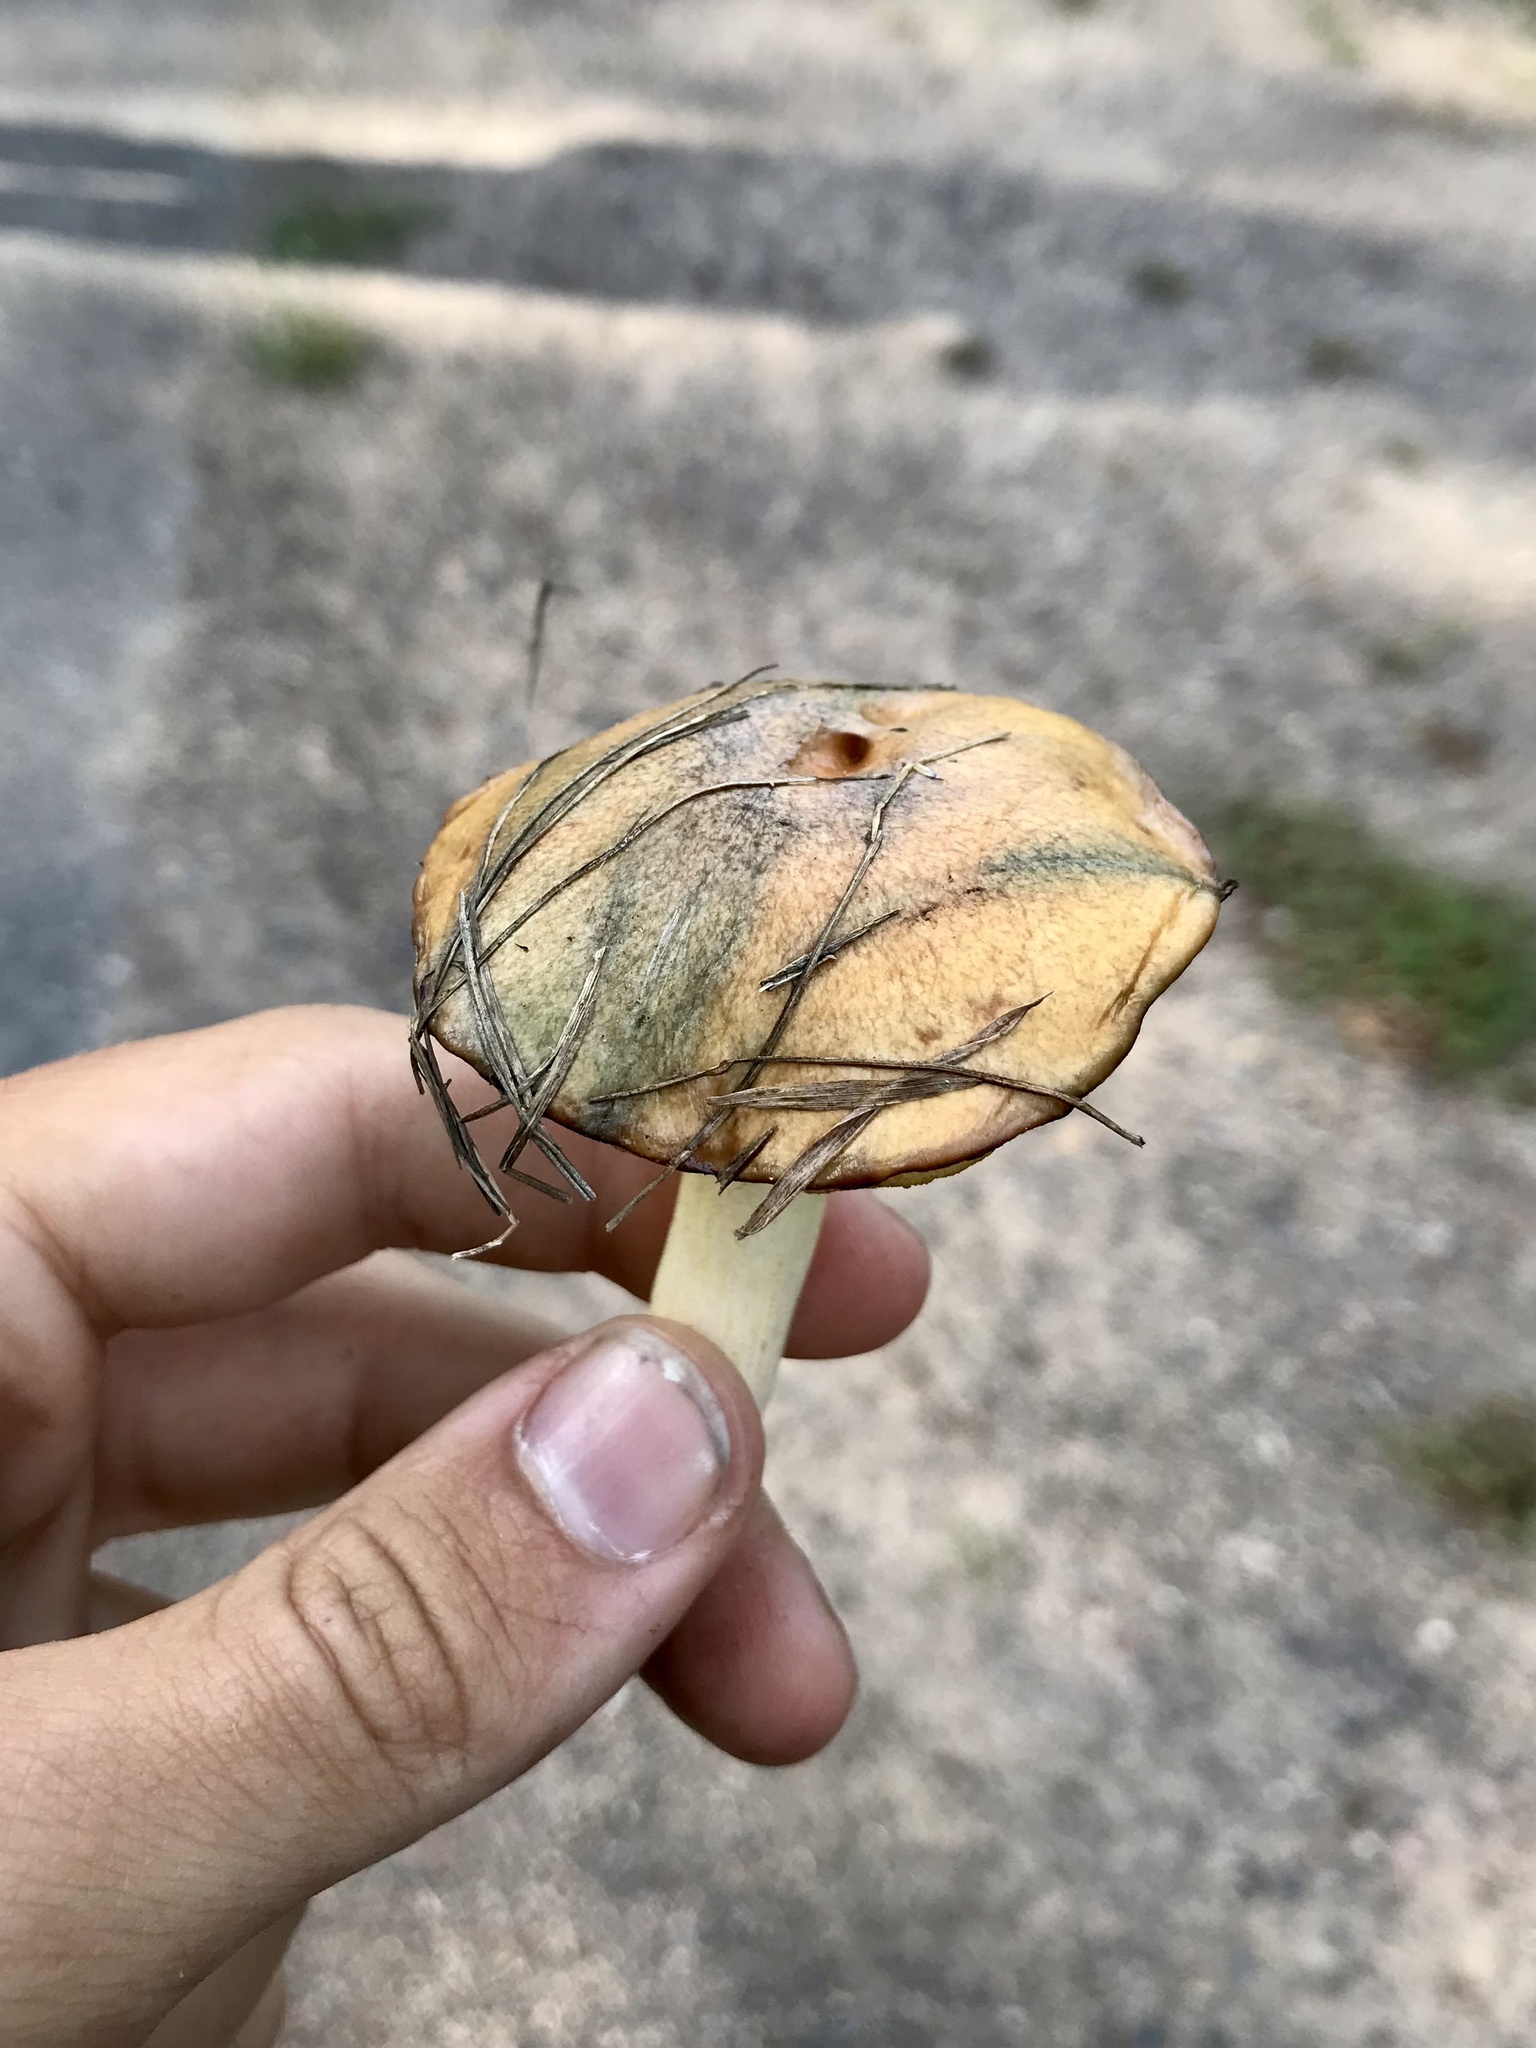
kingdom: Fungi
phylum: Basidiomycota
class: Agaricomycetes
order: Boletales
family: Suillaceae
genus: Suillus
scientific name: Suillus granulatus
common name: Weeping bolete
